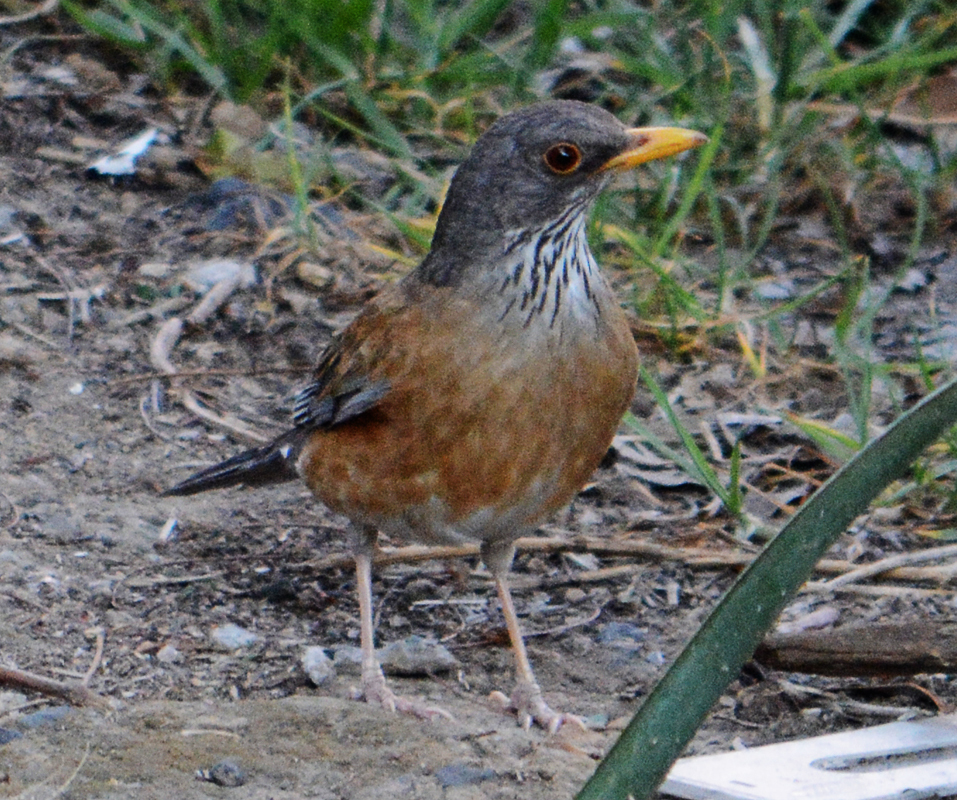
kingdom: Animalia
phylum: Chordata
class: Aves
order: Passeriformes
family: Turdidae
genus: Turdus
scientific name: Turdus rufopalliatus
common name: Rufous-backed robin
